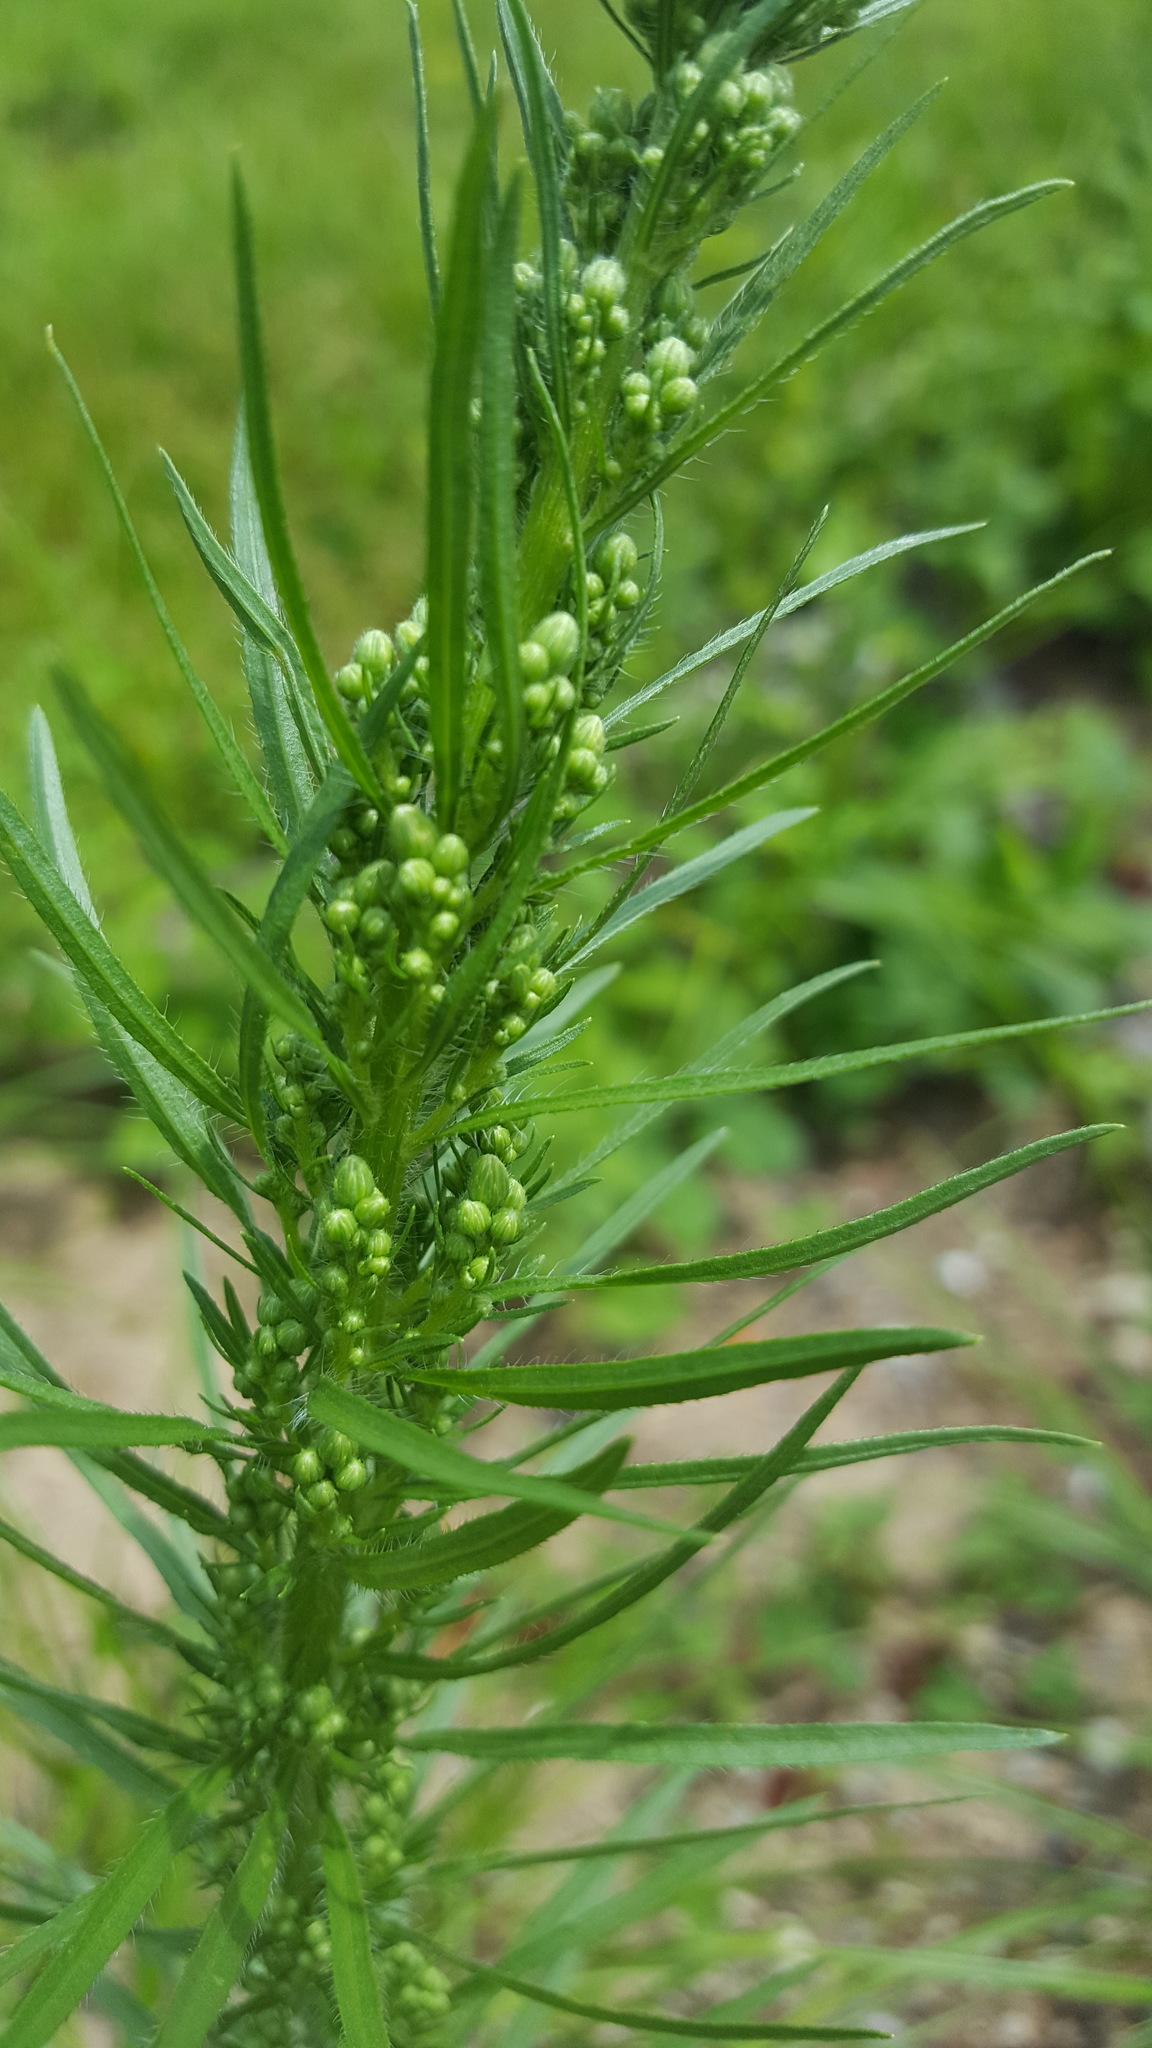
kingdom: Plantae
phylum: Tracheophyta
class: Magnoliopsida
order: Asterales
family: Asteraceae
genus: Erigeron
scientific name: Erigeron canadensis
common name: Canadian fleabane
